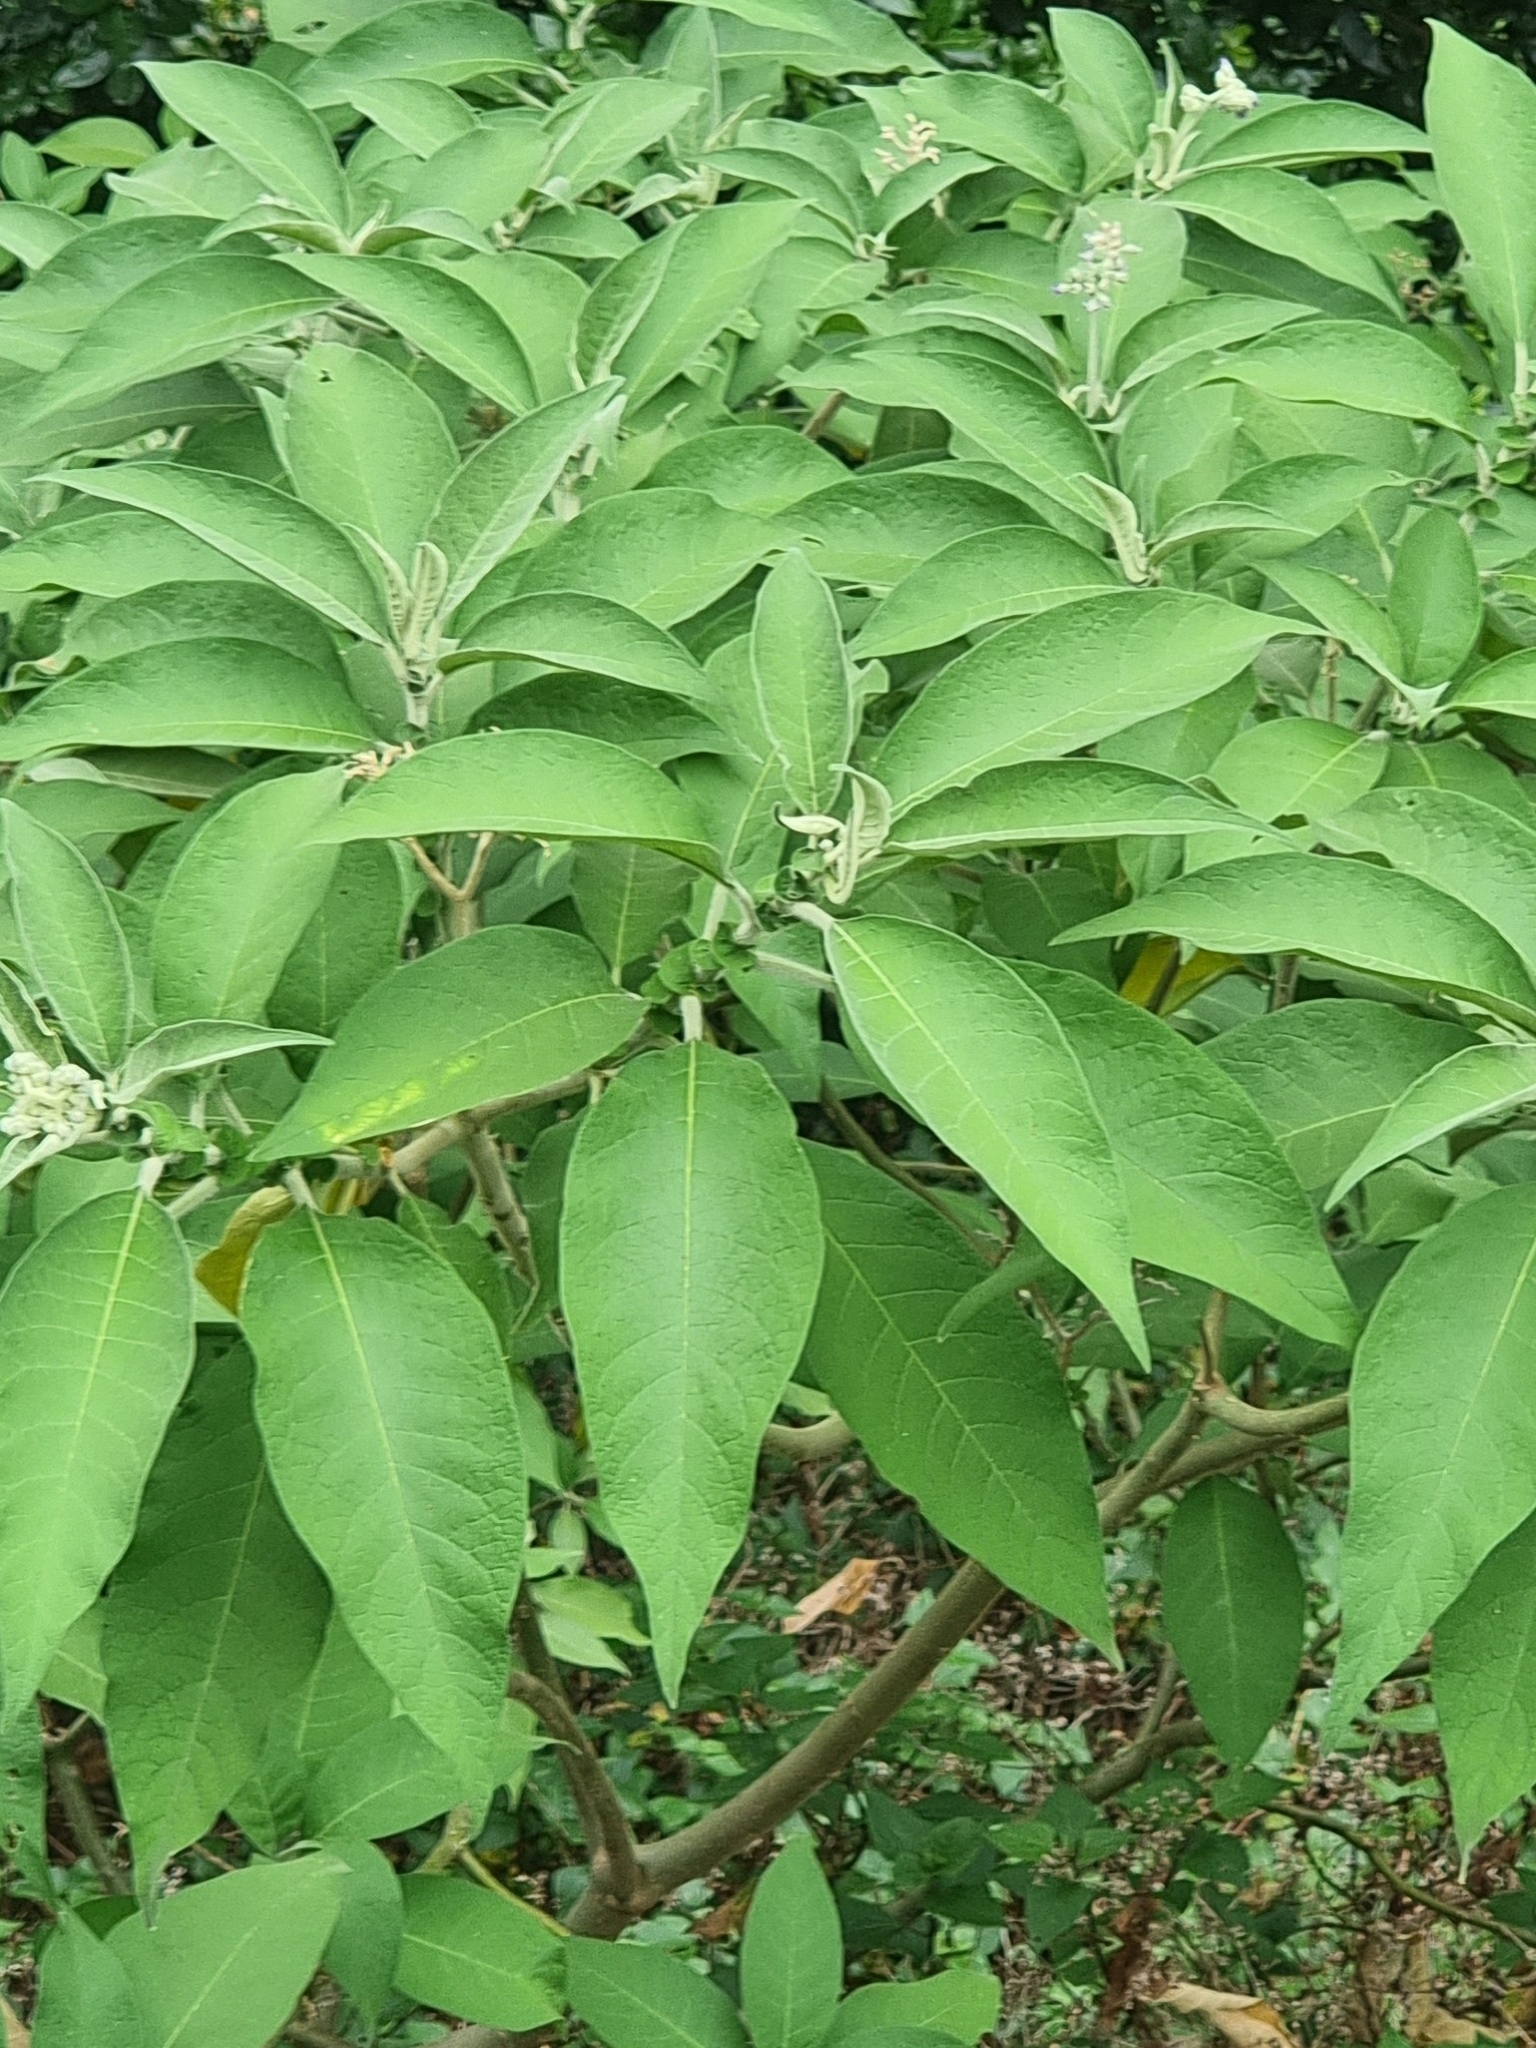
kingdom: Plantae
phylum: Tracheophyta
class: Magnoliopsida
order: Solanales
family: Solanaceae
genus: Solanum
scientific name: Solanum mauritianum
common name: Earleaf nightshade
